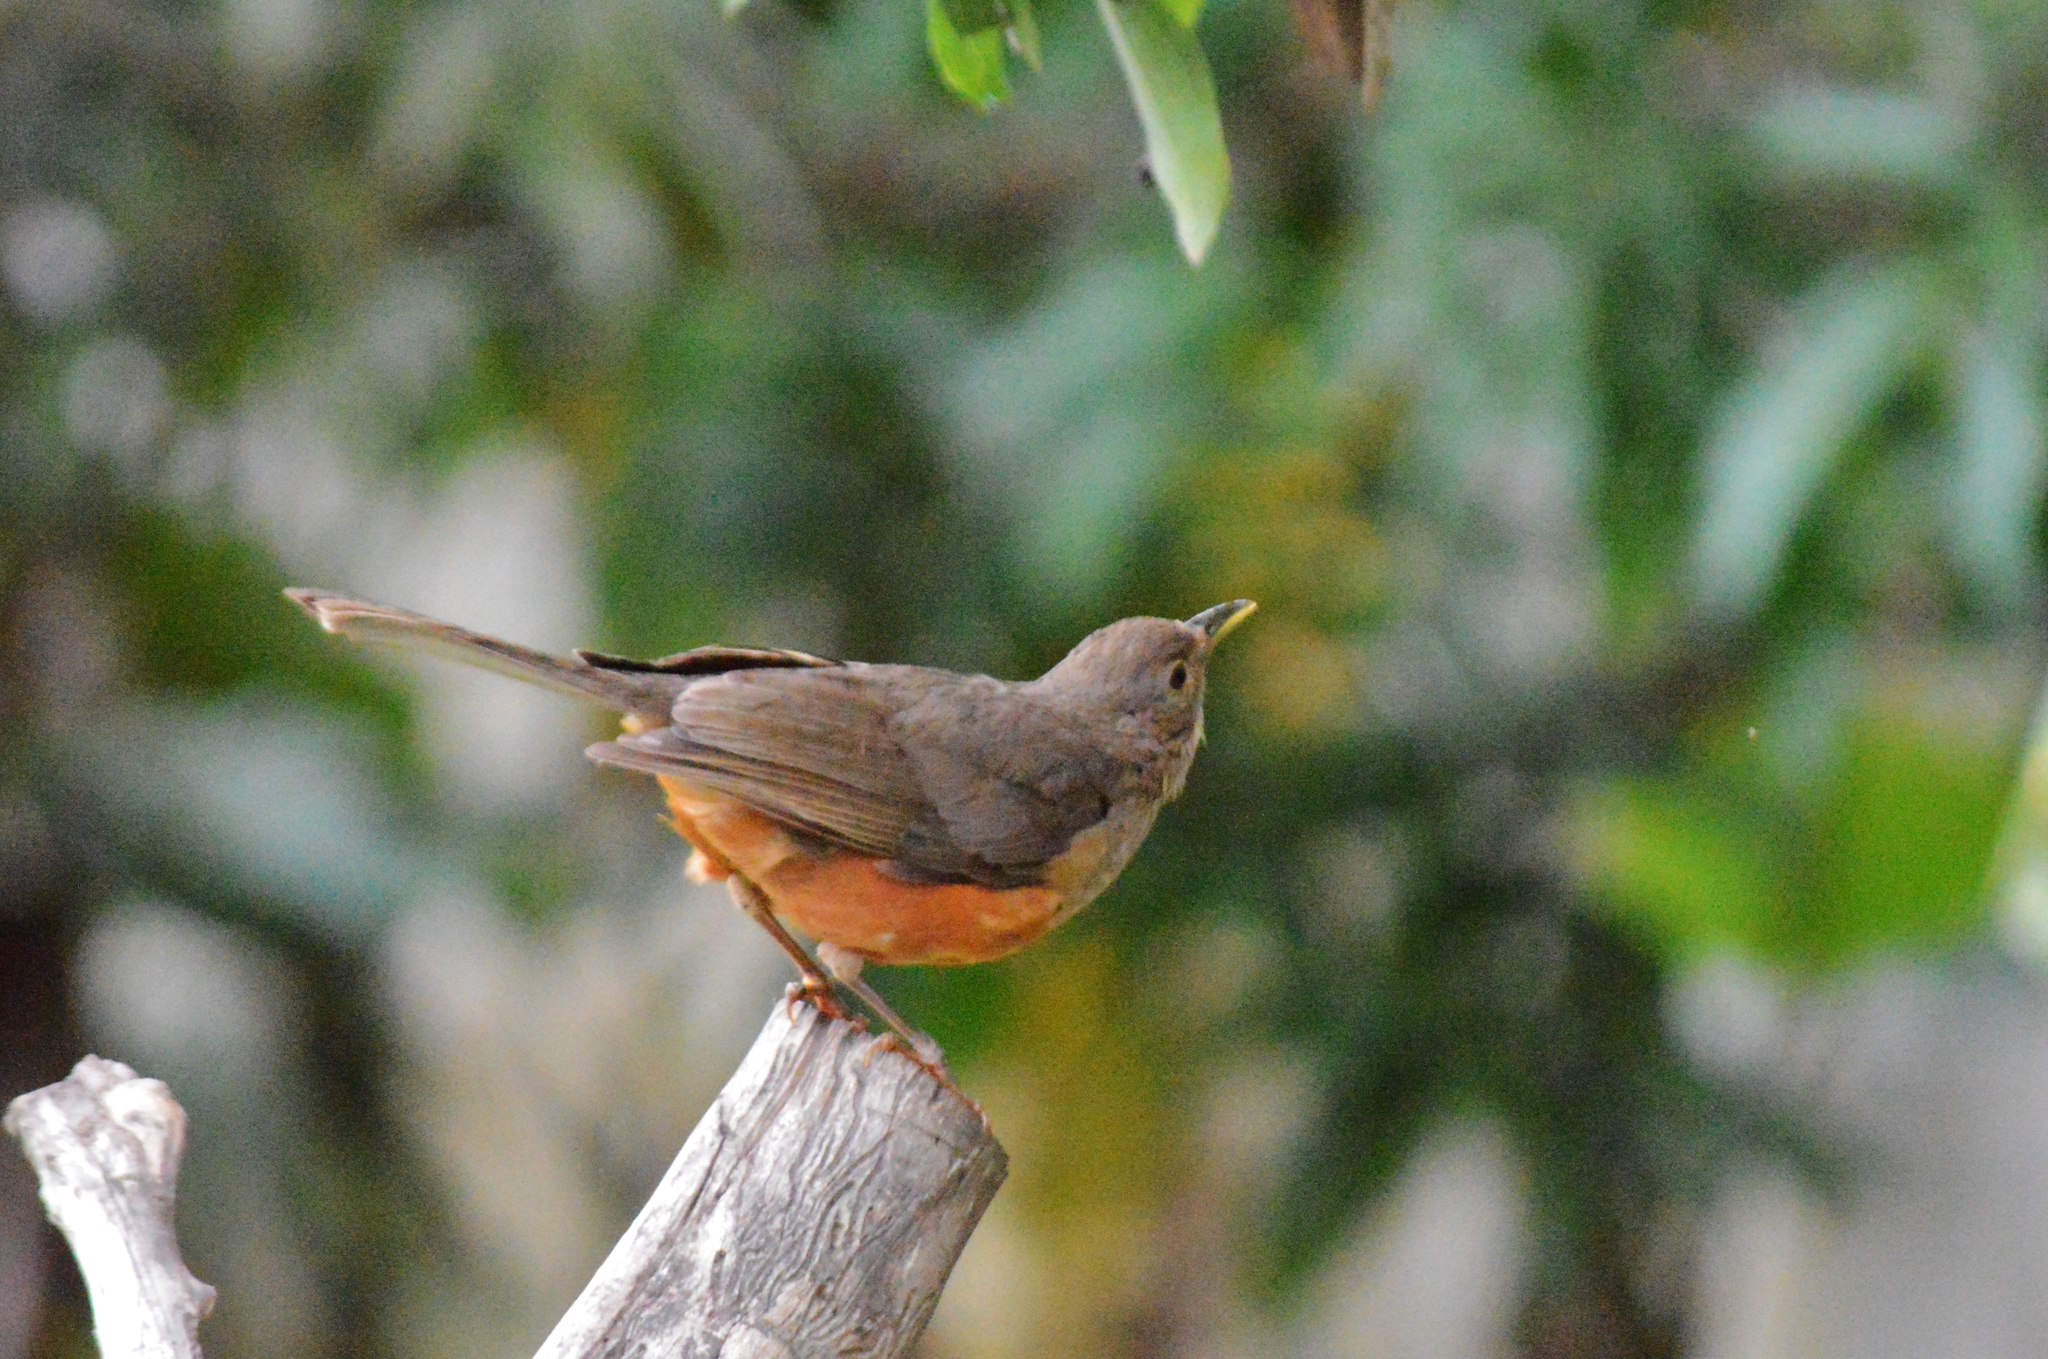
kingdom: Animalia
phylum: Chordata
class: Aves
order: Passeriformes
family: Turdidae
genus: Turdus
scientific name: Turdus rufiventris
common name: Rufous-bellied thrush
